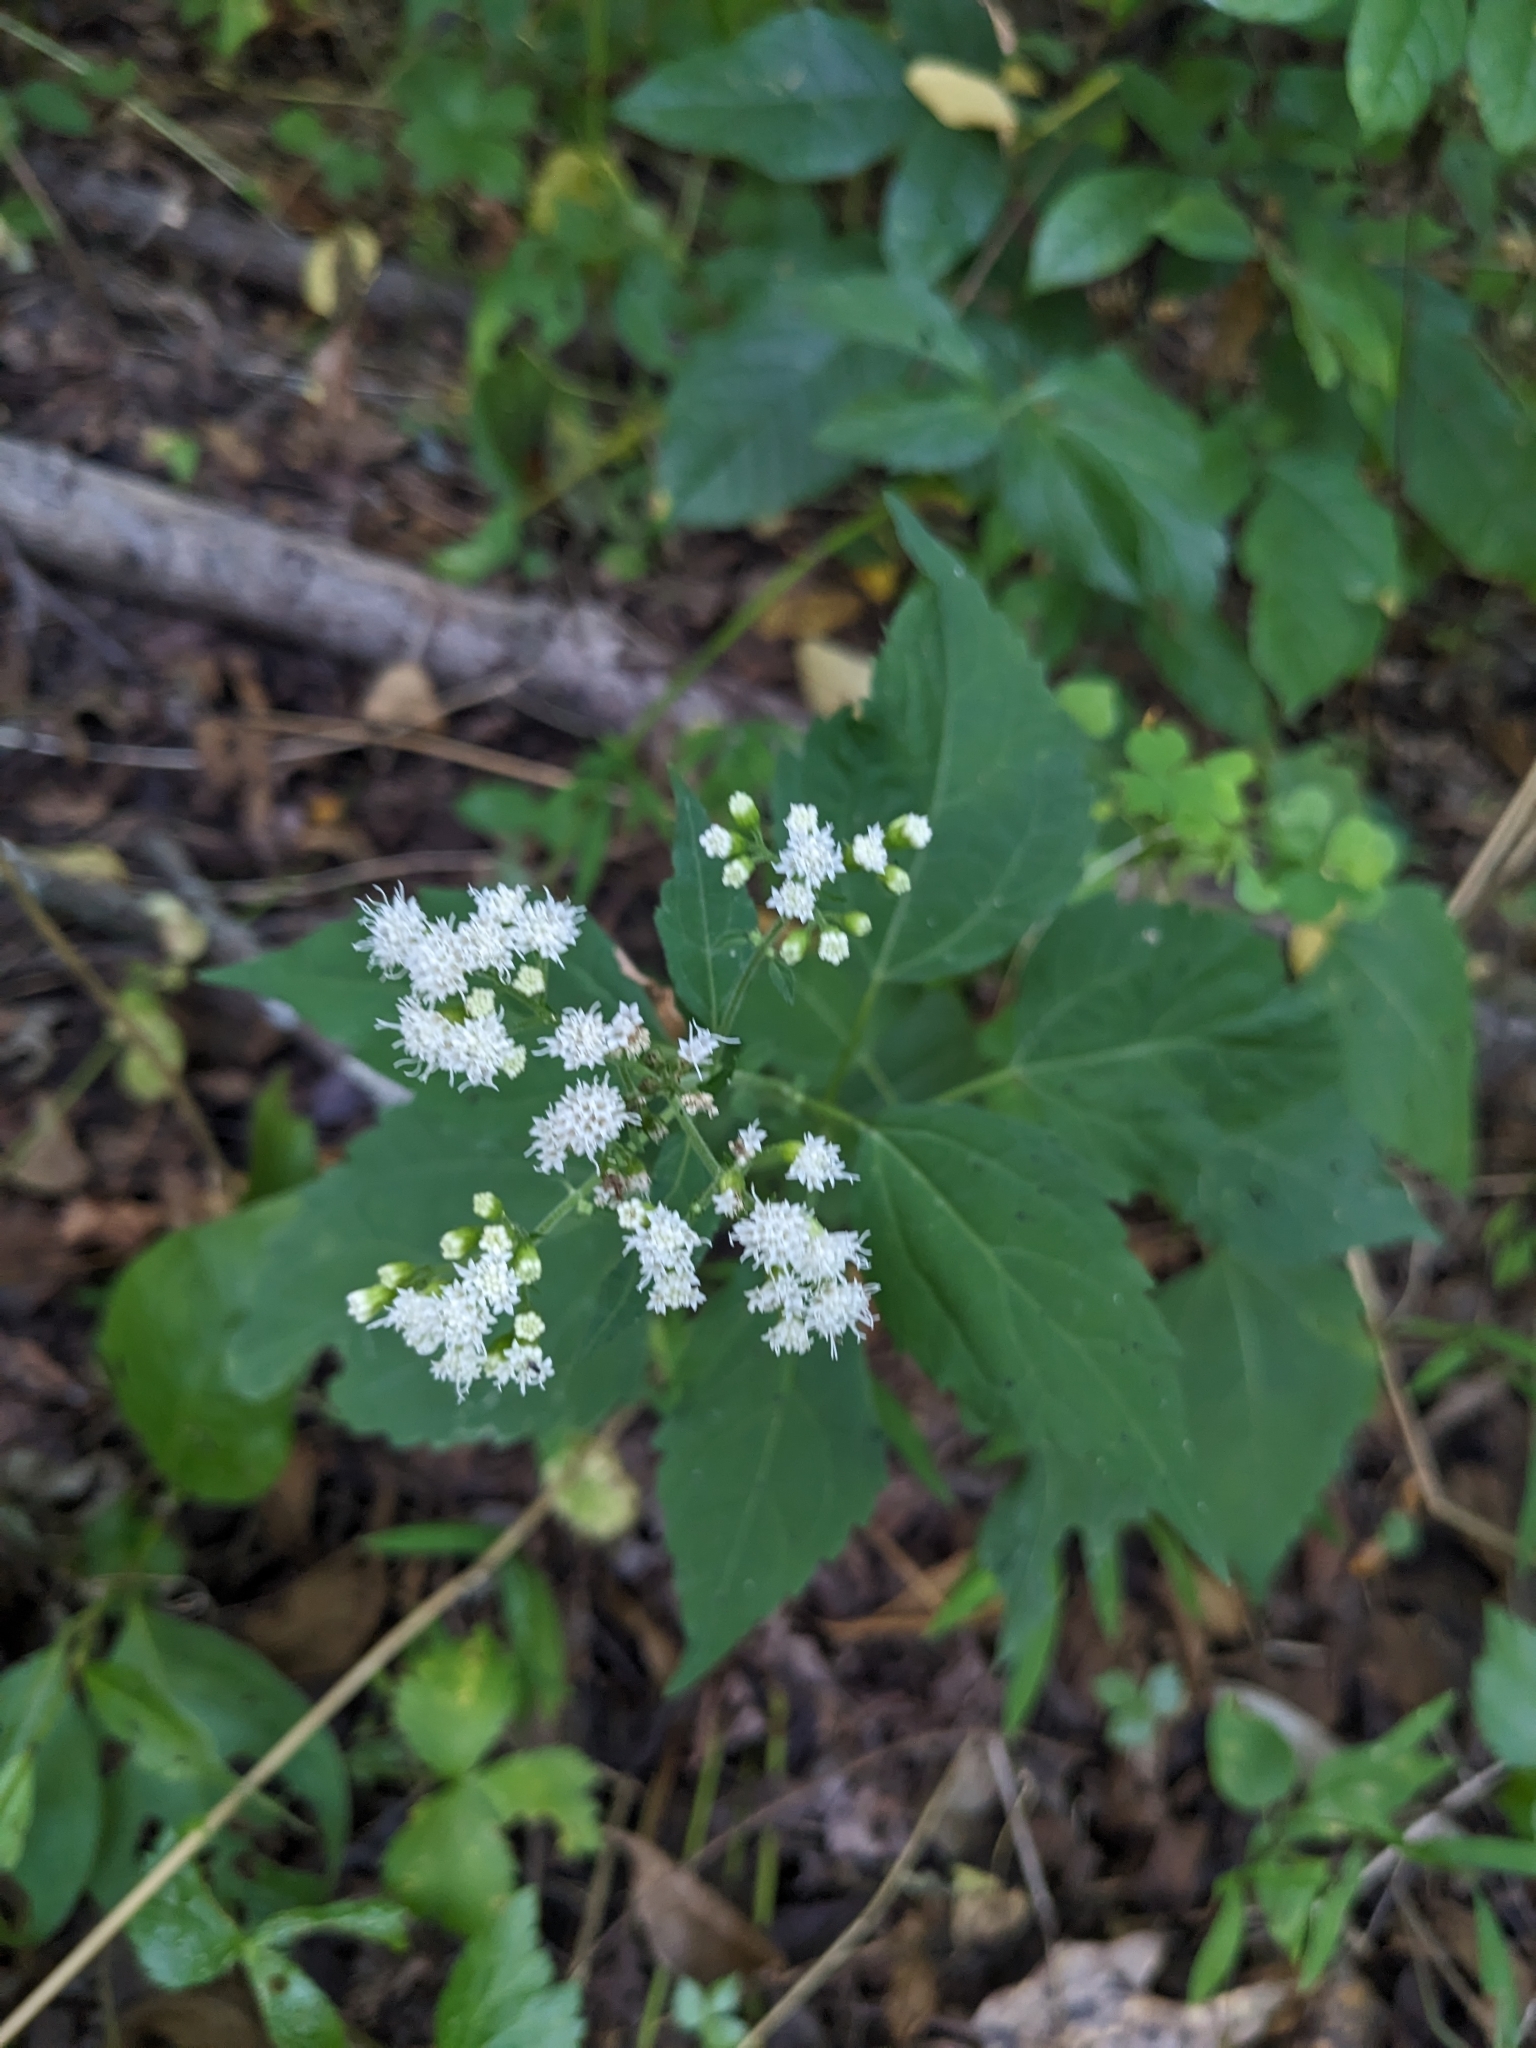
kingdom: Plantae
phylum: Tracheophyta
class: Magnoliopsida
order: Asterales
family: Asteraceae
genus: Ageratina
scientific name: Ageratina altissima
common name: White snakeroot
